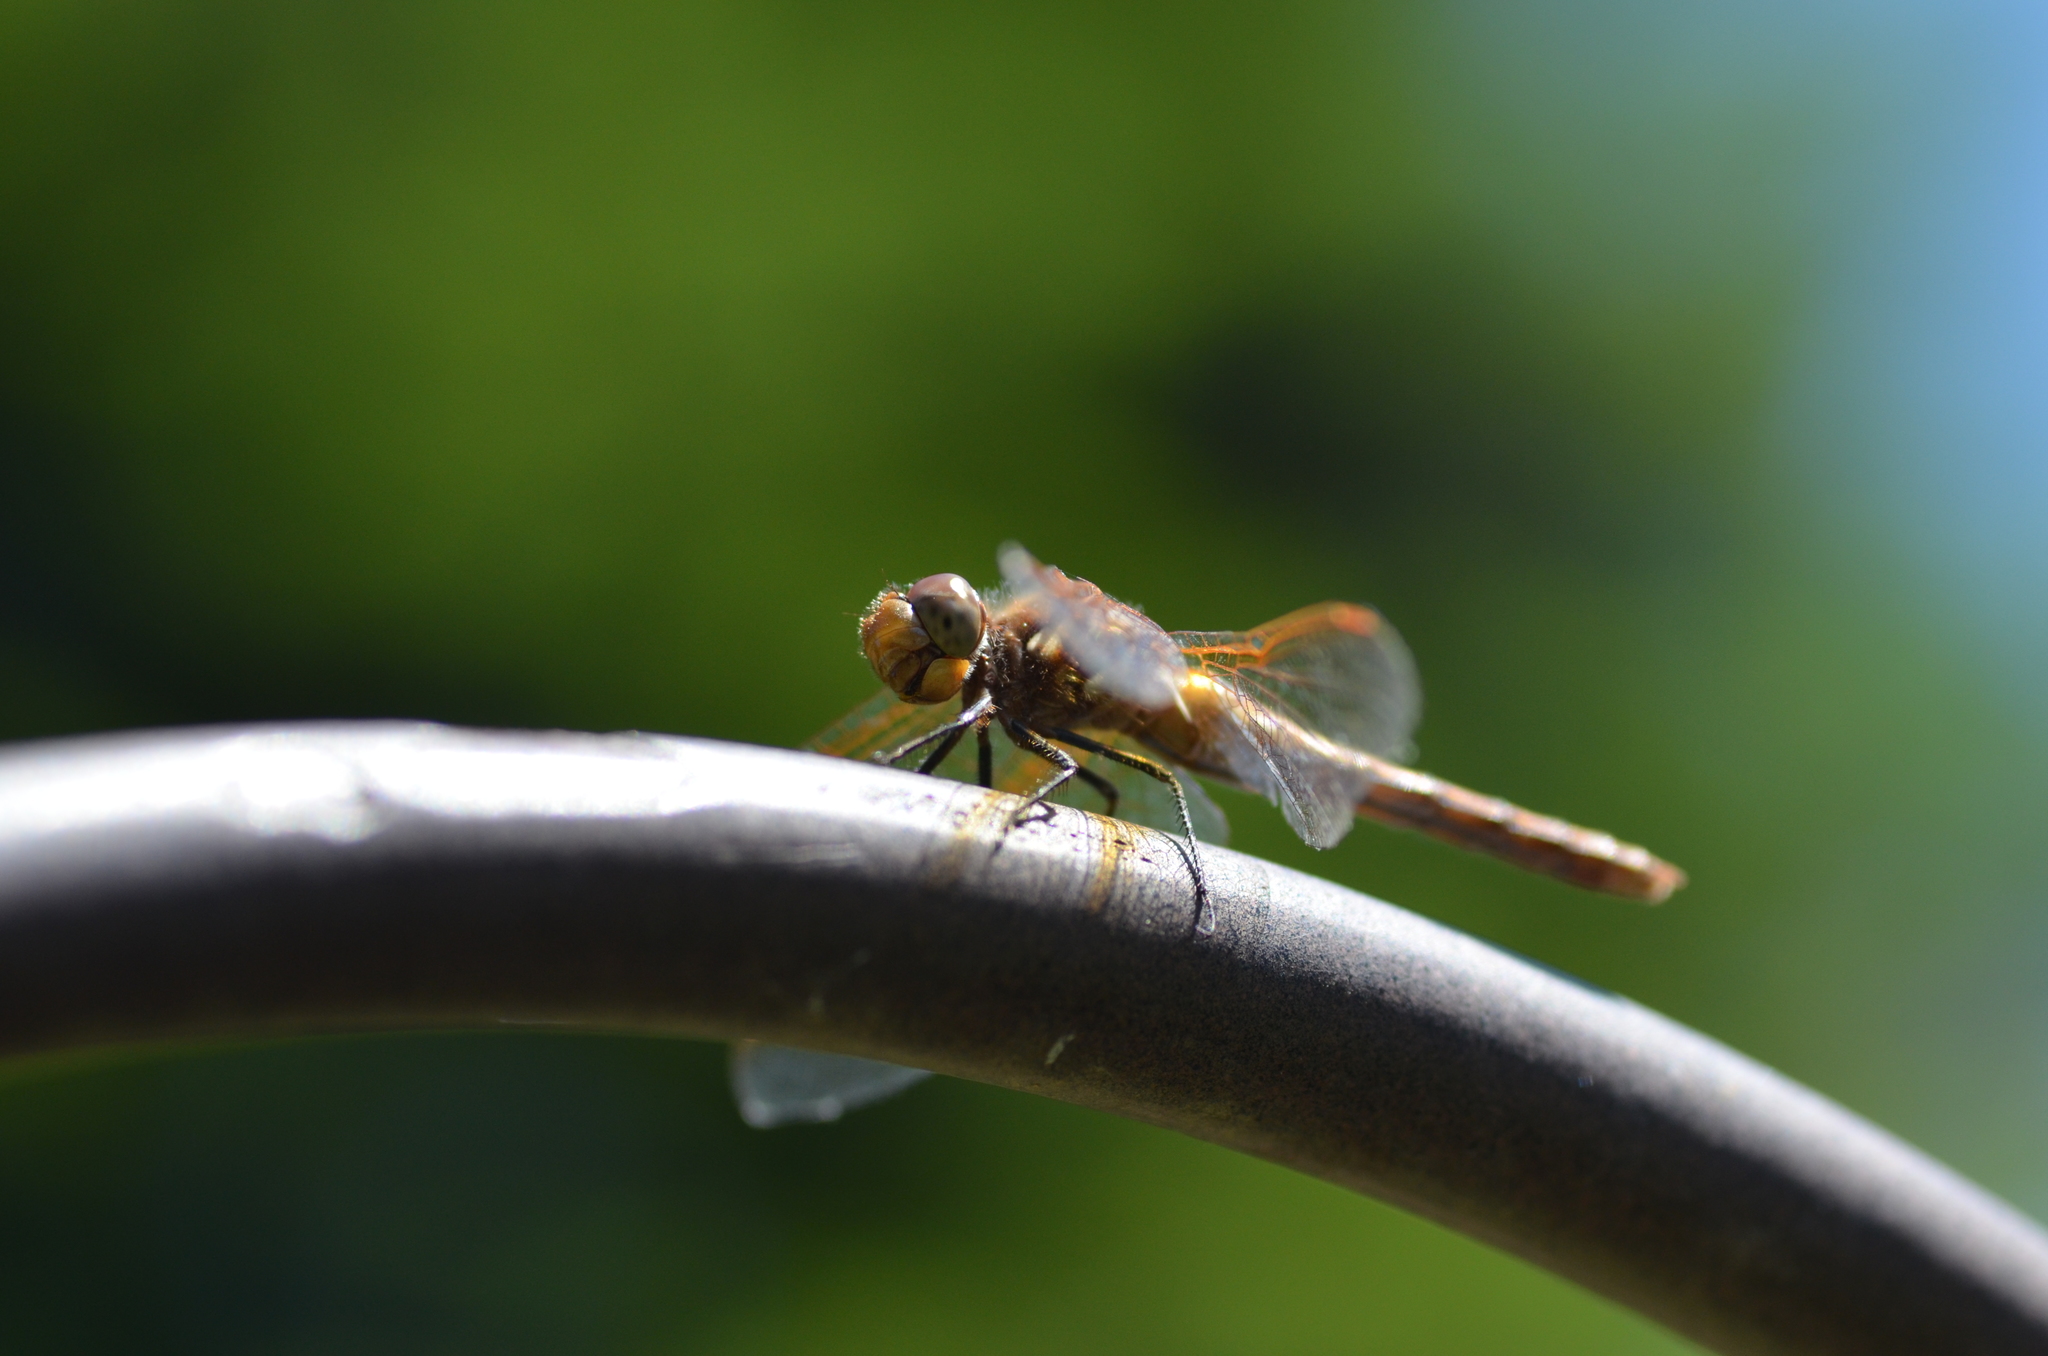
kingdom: Animalia
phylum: Arthropoda
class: Insecta
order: Odonata
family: Libellulidae
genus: Sympetrum
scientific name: Sympetrum madidum
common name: Red-veined meadowhawk
